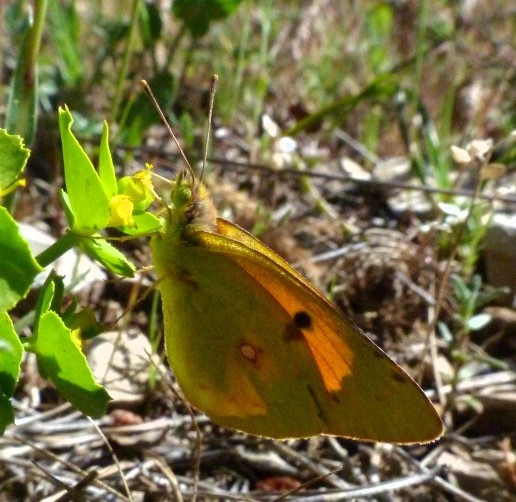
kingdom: Animalia
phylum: Arthropoda
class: Insecta
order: Lepidoptera
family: Pieridae
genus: Colias
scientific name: Colias croceus
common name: Clouded yellow
